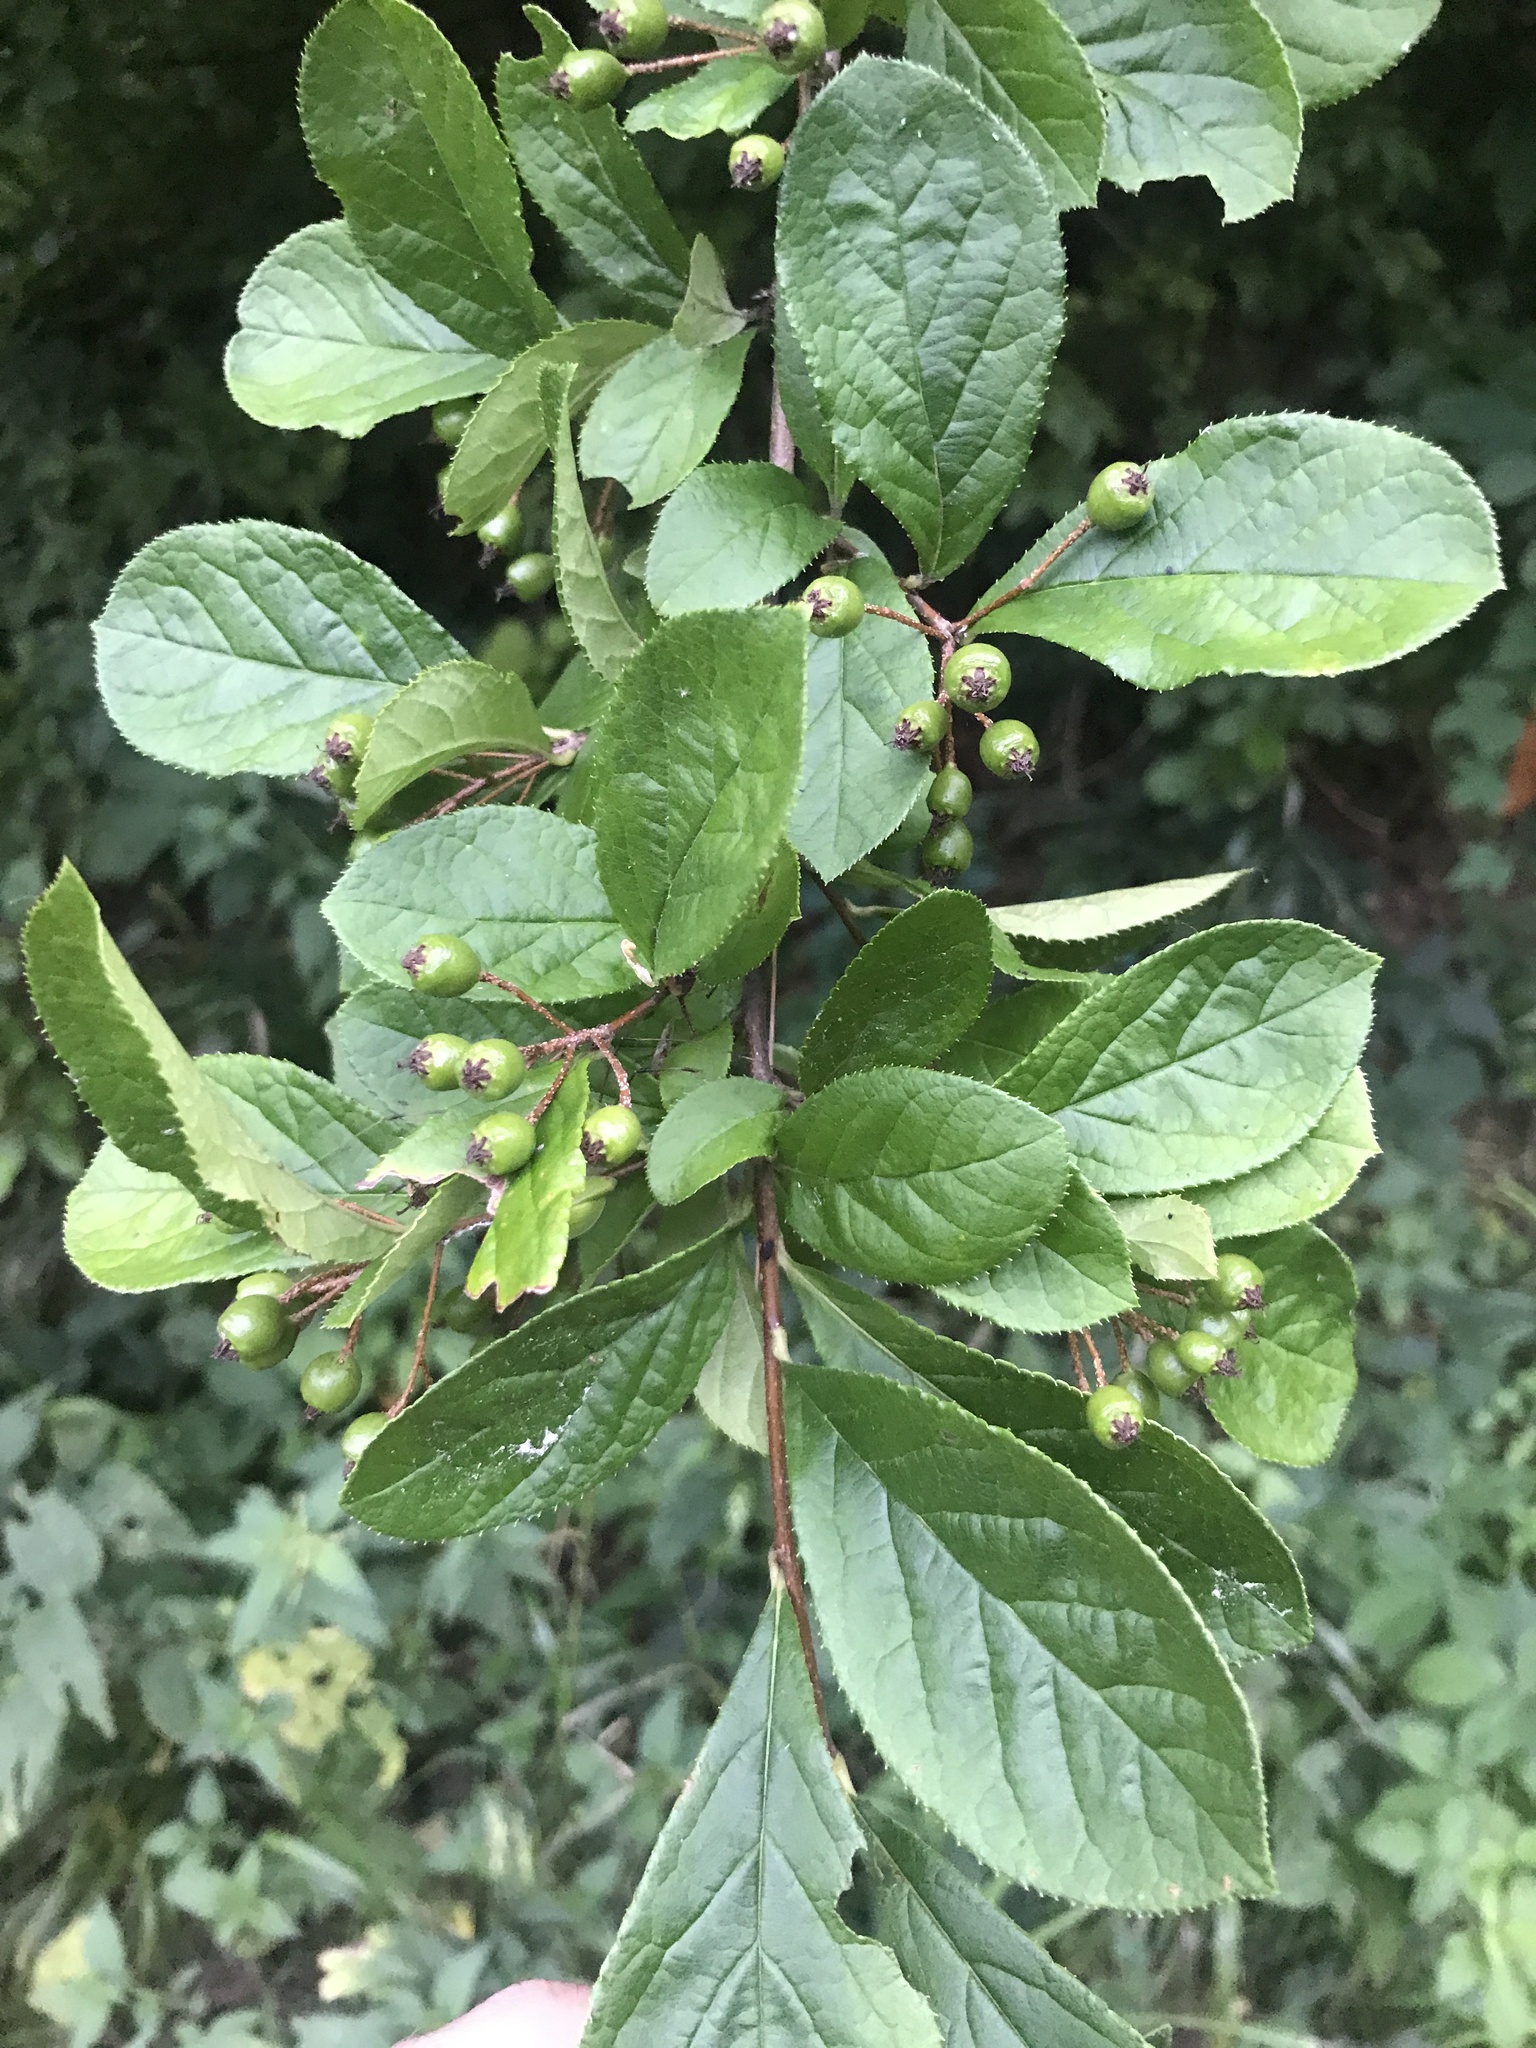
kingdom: Plantae
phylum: Tracheophyta
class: Magnoliopsida
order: Rosales
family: Rosaceae
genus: Pourthiaea
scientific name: Pourthiaea villosa
